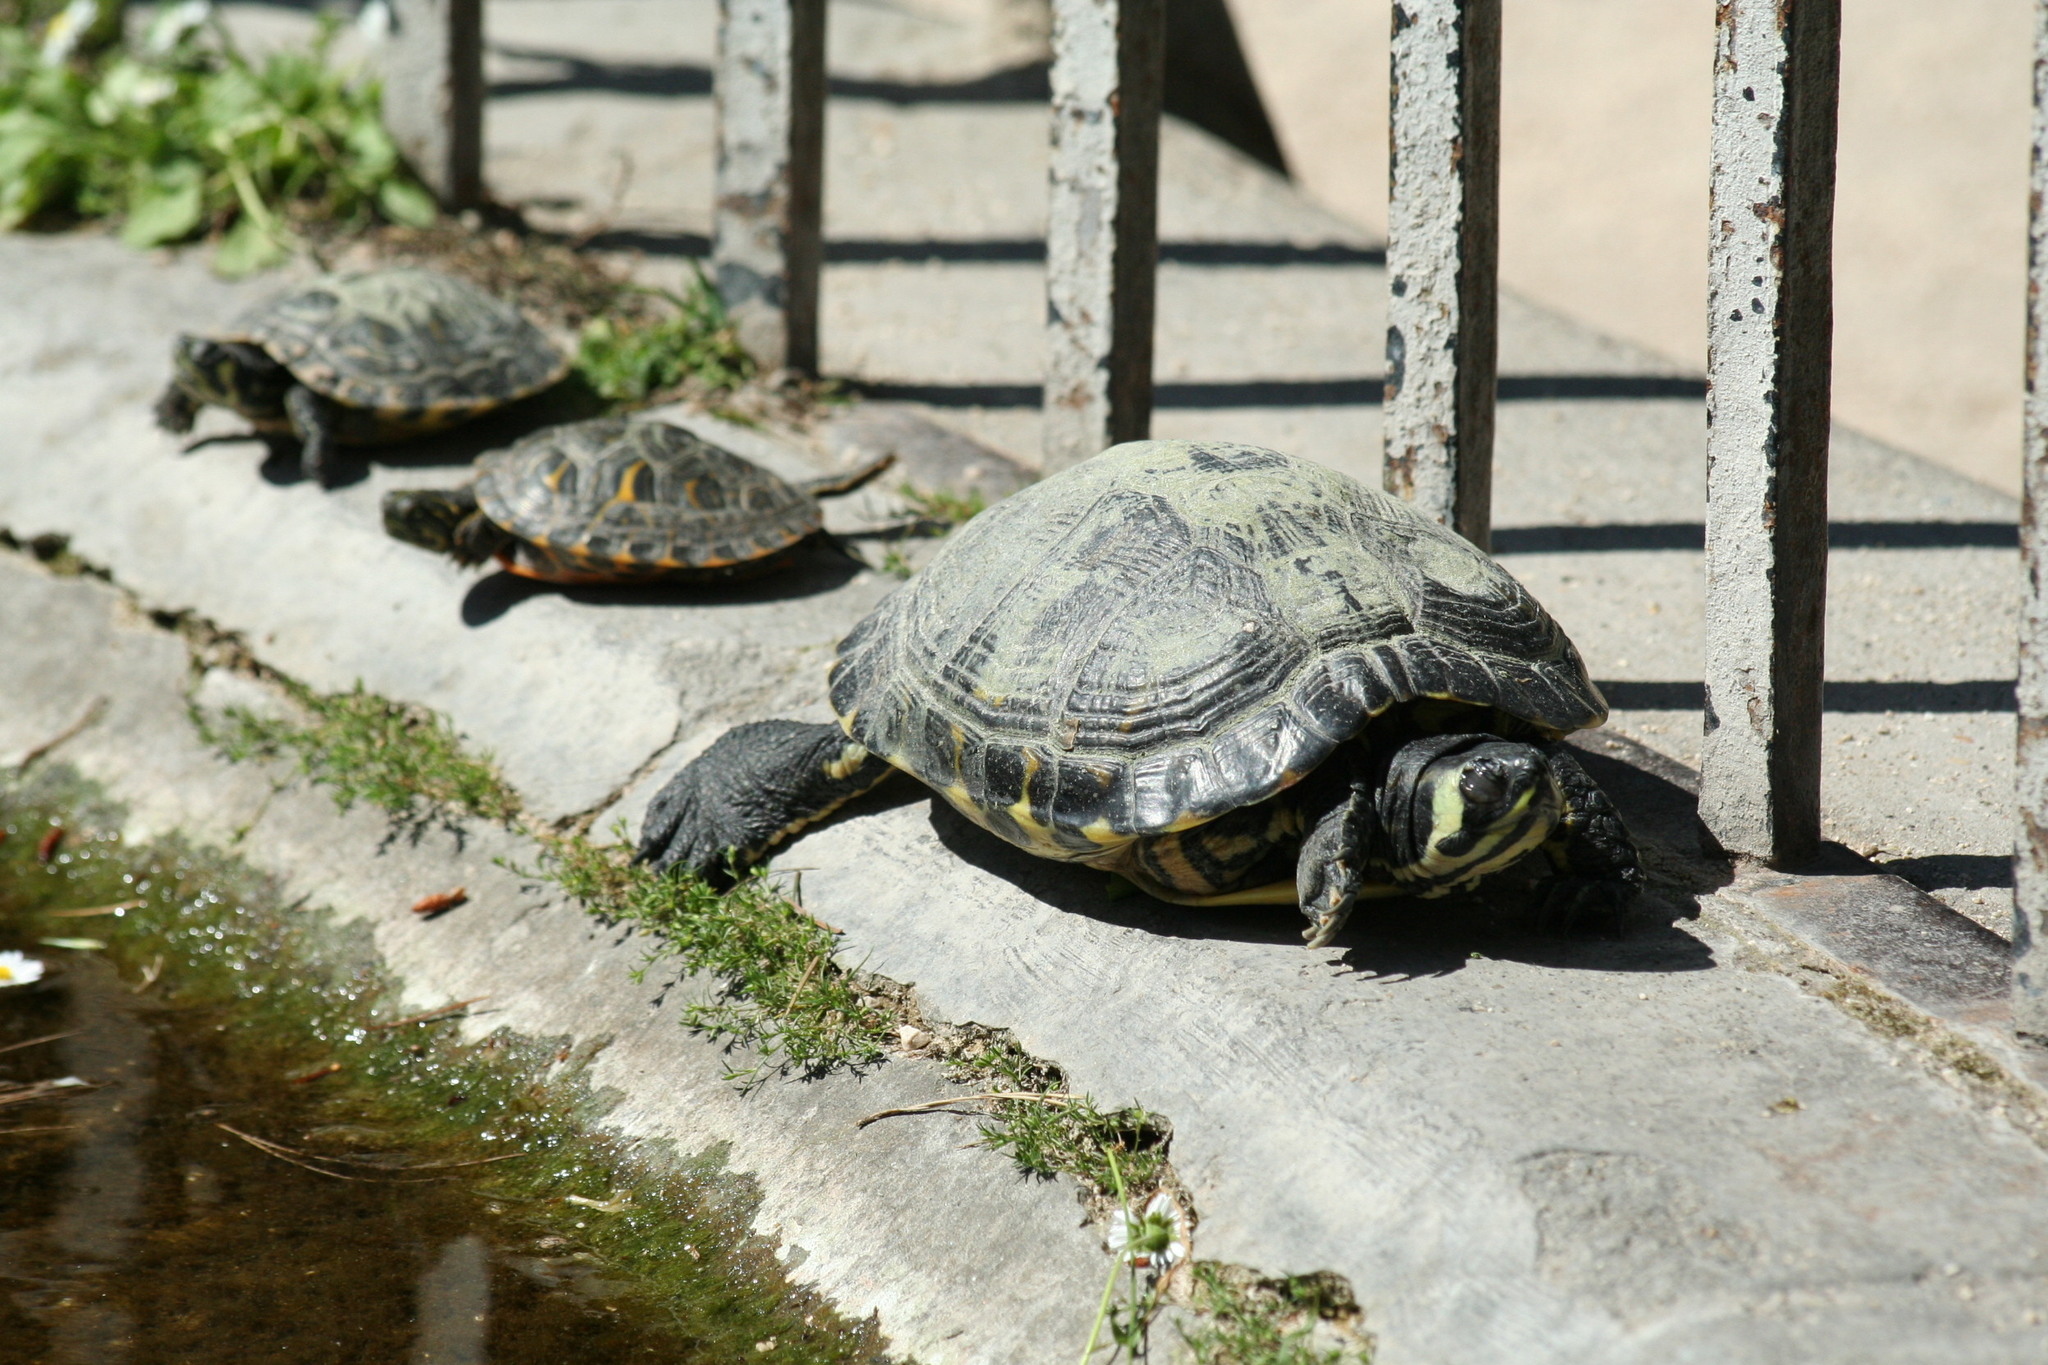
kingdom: Animalia
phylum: Chordata
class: Testudines
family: Emydidae
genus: Trachemys
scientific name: Trachemys scripta
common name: Slider
